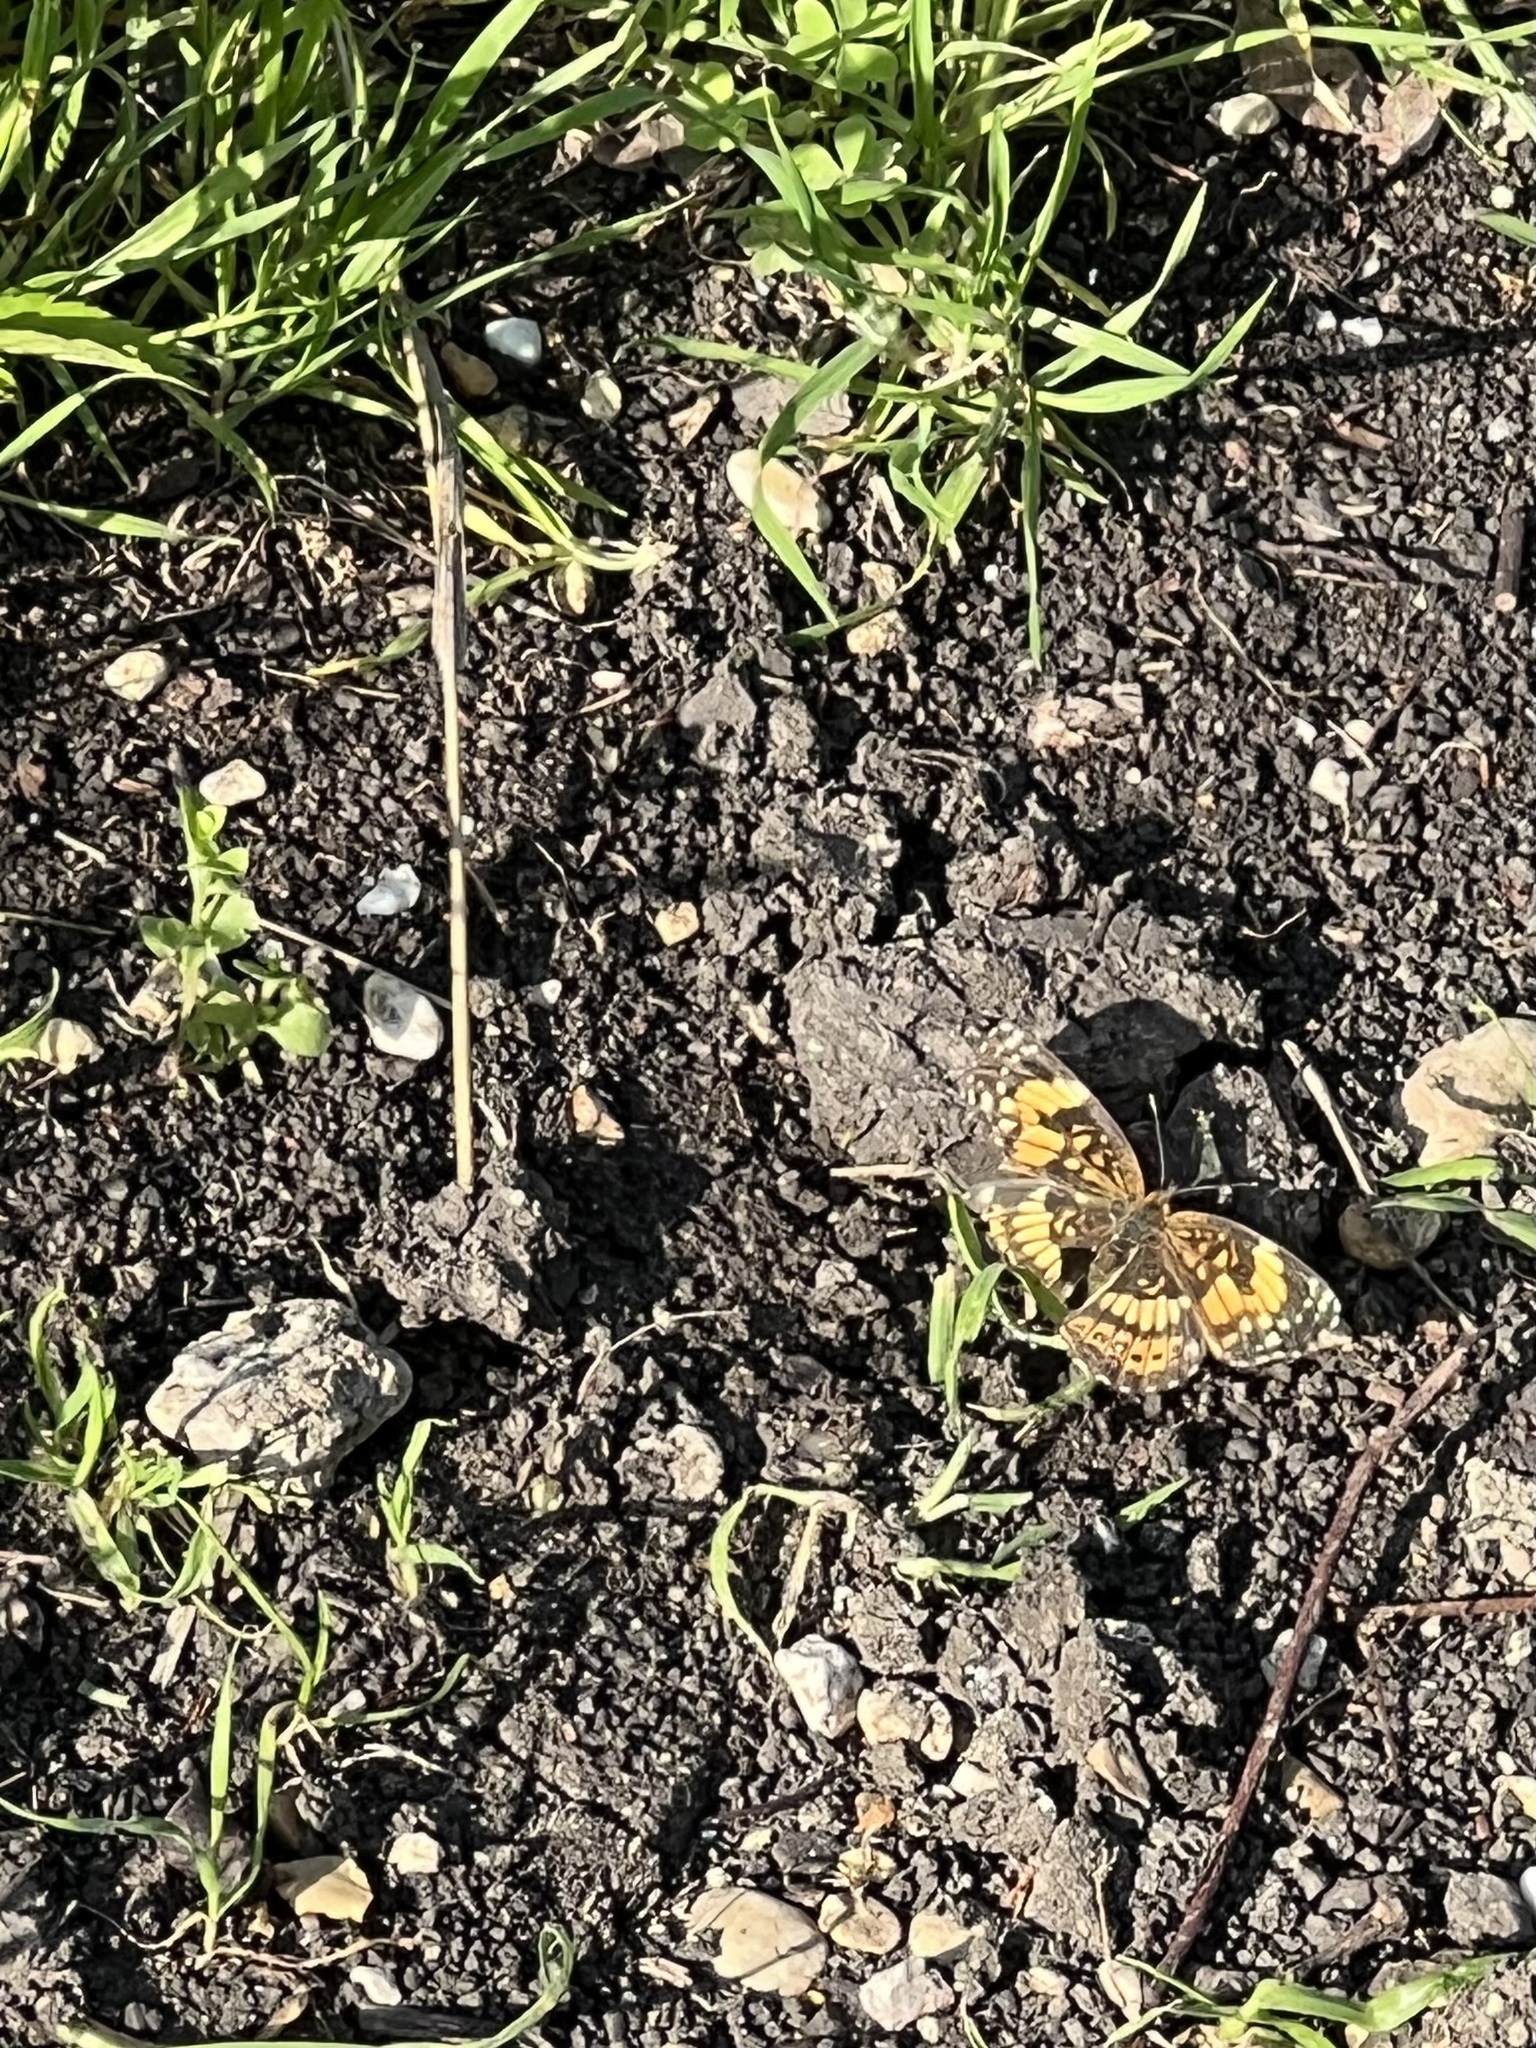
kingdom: Animalia
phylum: Arthropoda
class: Insecta
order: Lepidoptera
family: Nymphalidae
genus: Chlosyne
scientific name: Chlosyne nycteis
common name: Silvery checkerspot
